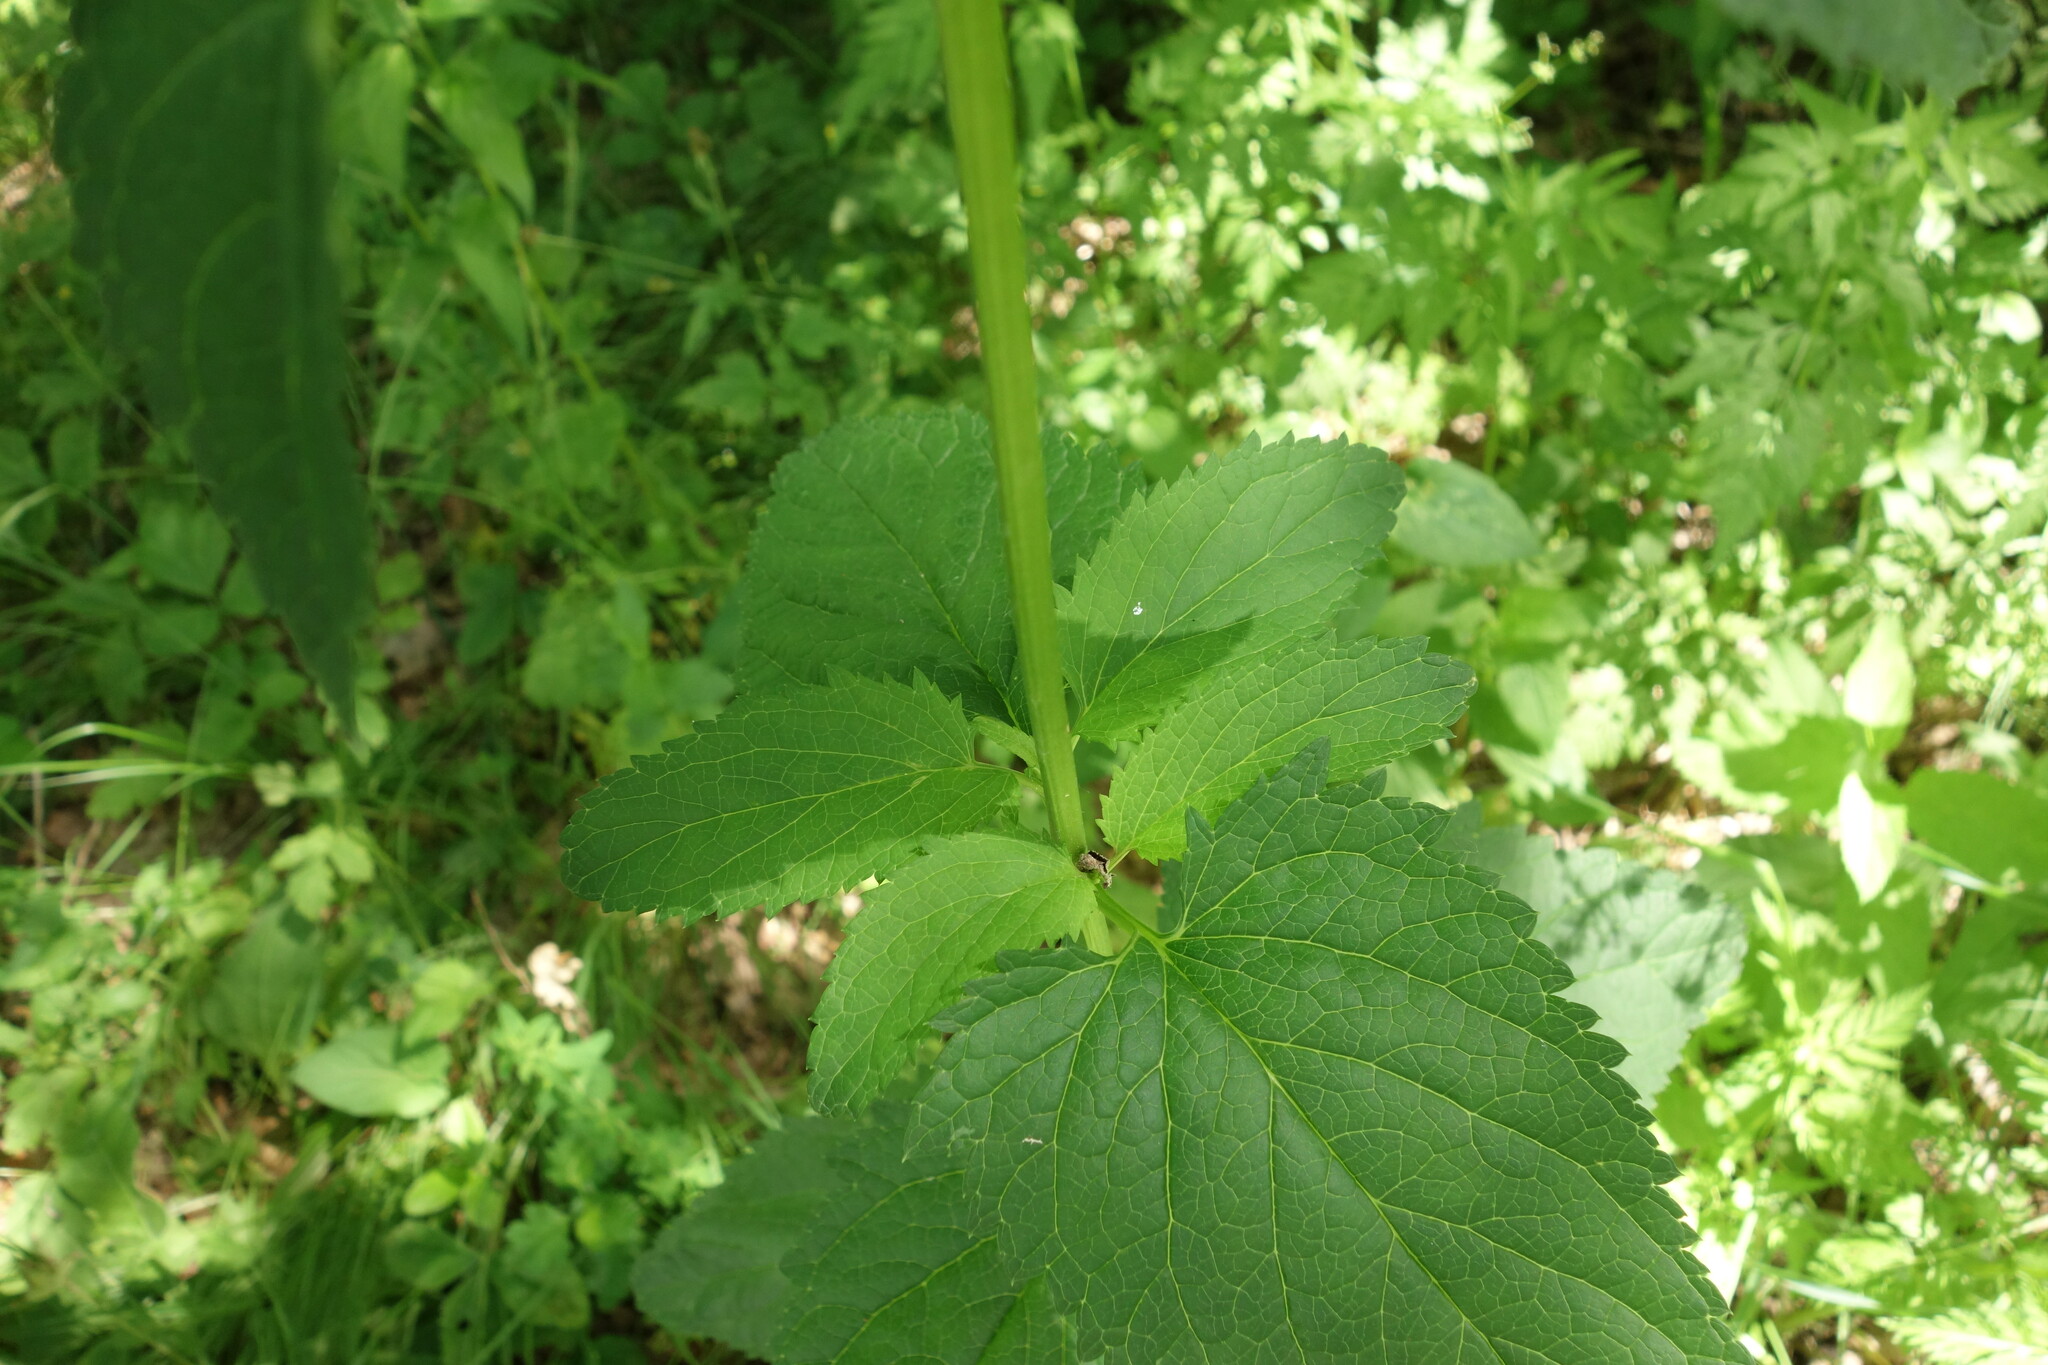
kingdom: Plantae
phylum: Tracheophyta
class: Magnoliopsida
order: Lamiales
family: Scrophulariaceae
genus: Scrophularia
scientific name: Scrophularia nodosa
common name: Common figwort
